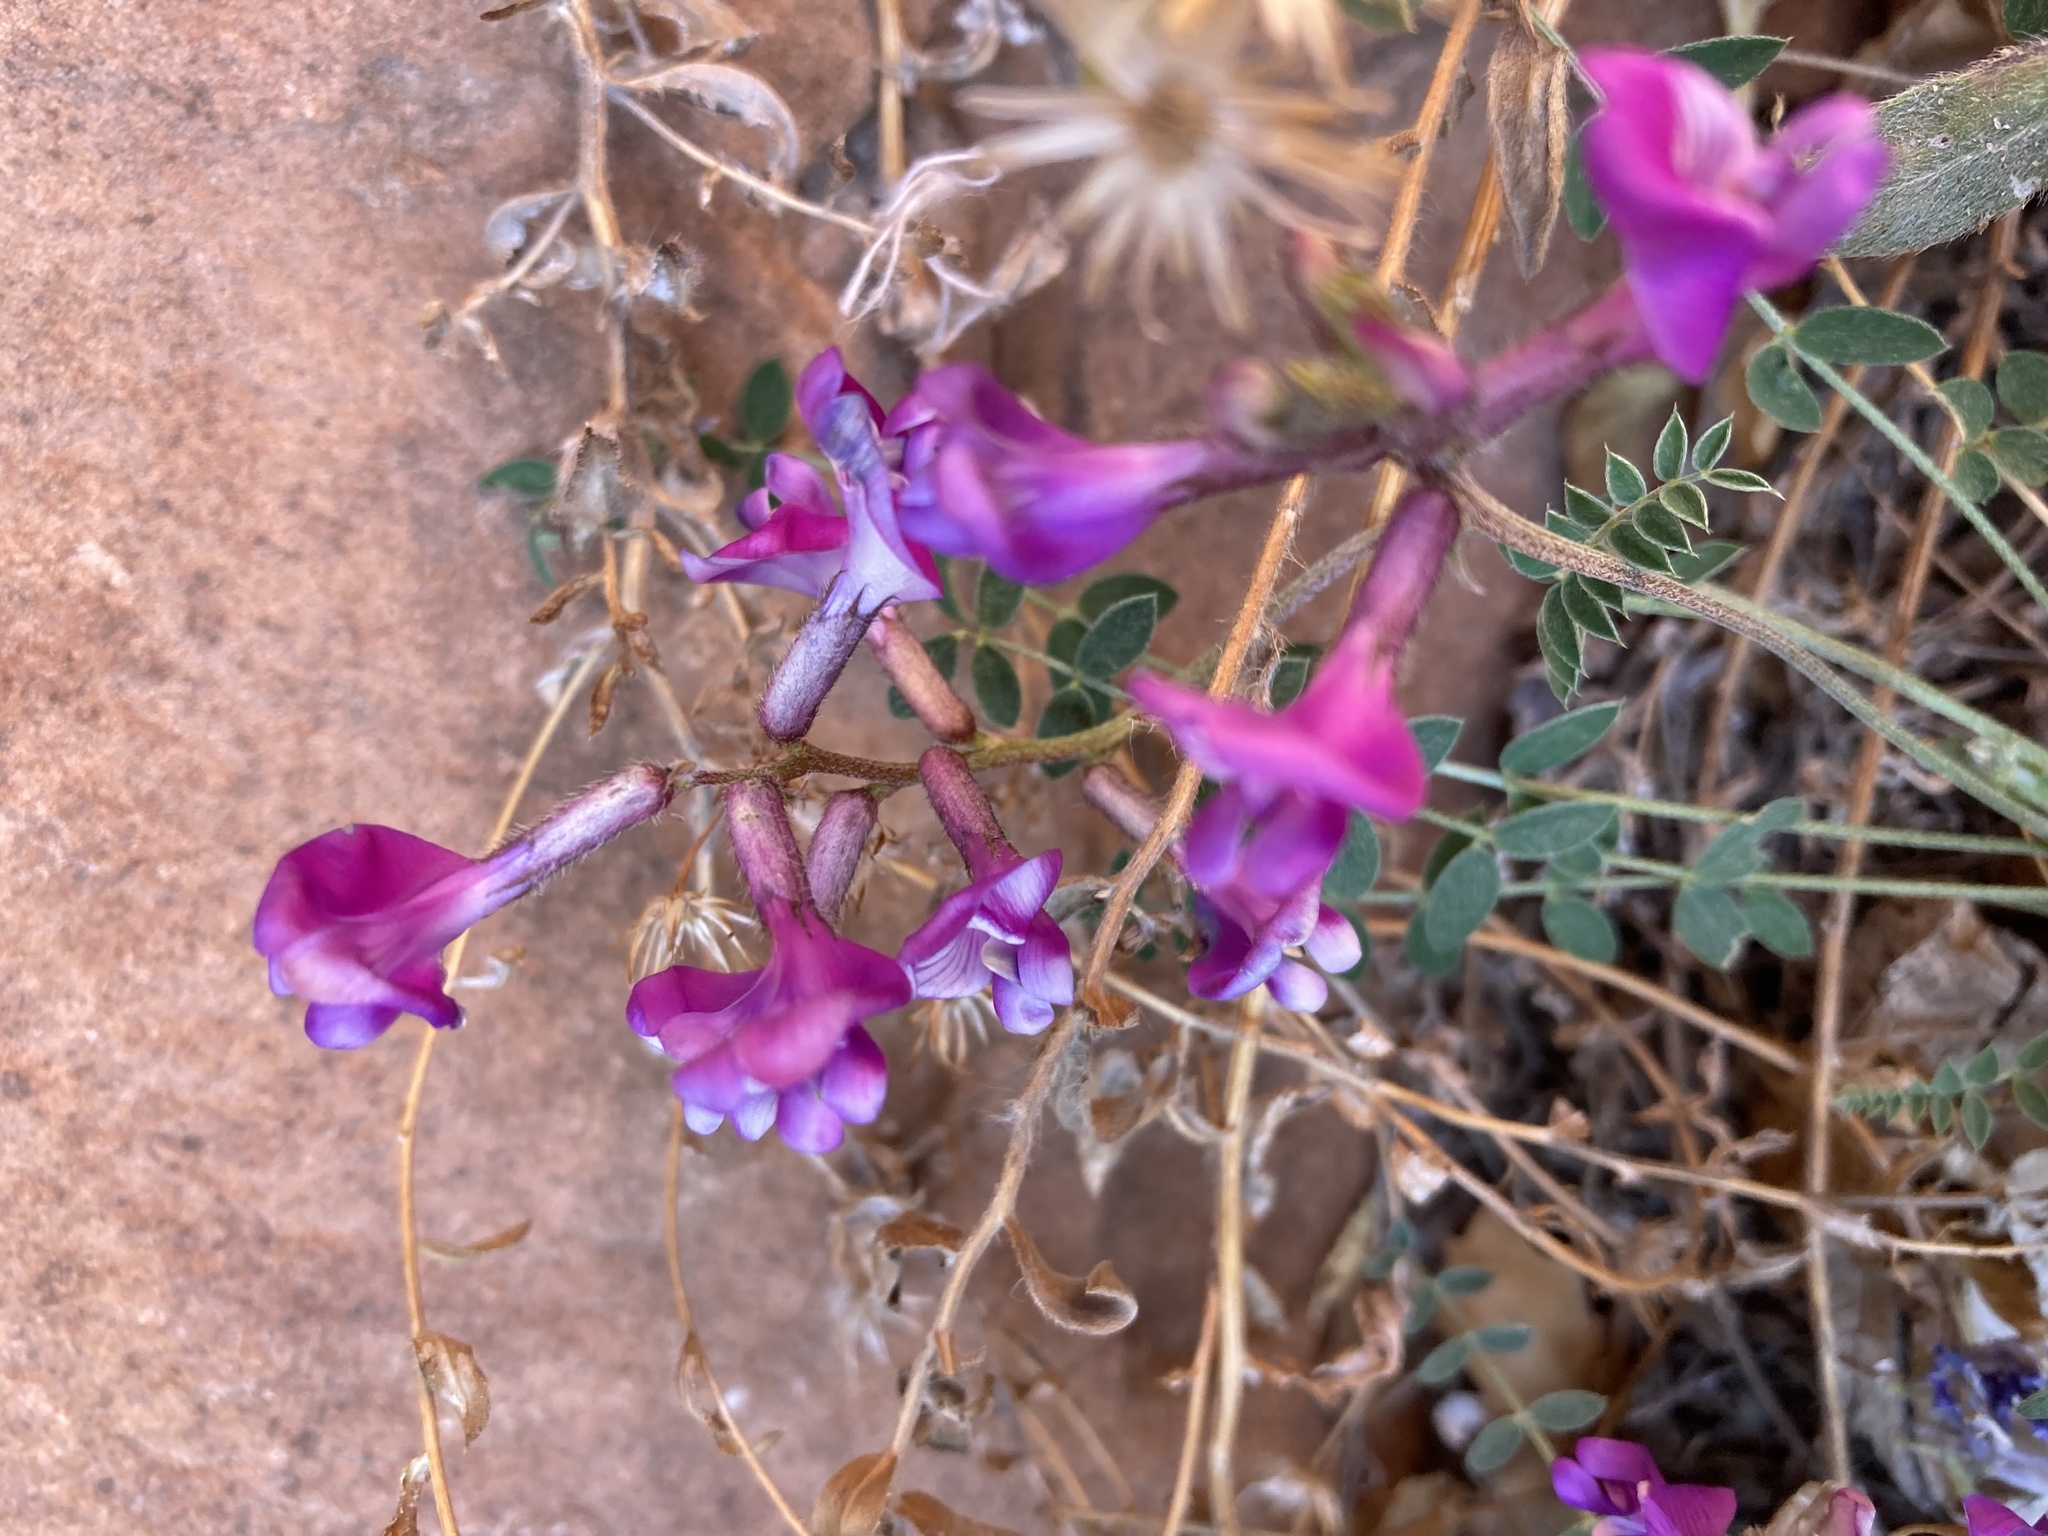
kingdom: Plantae
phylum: Tracheophyta
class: Magnoliopsida
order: Fabales
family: Fabaceae
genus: Astragalus
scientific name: Astragalus zionis
